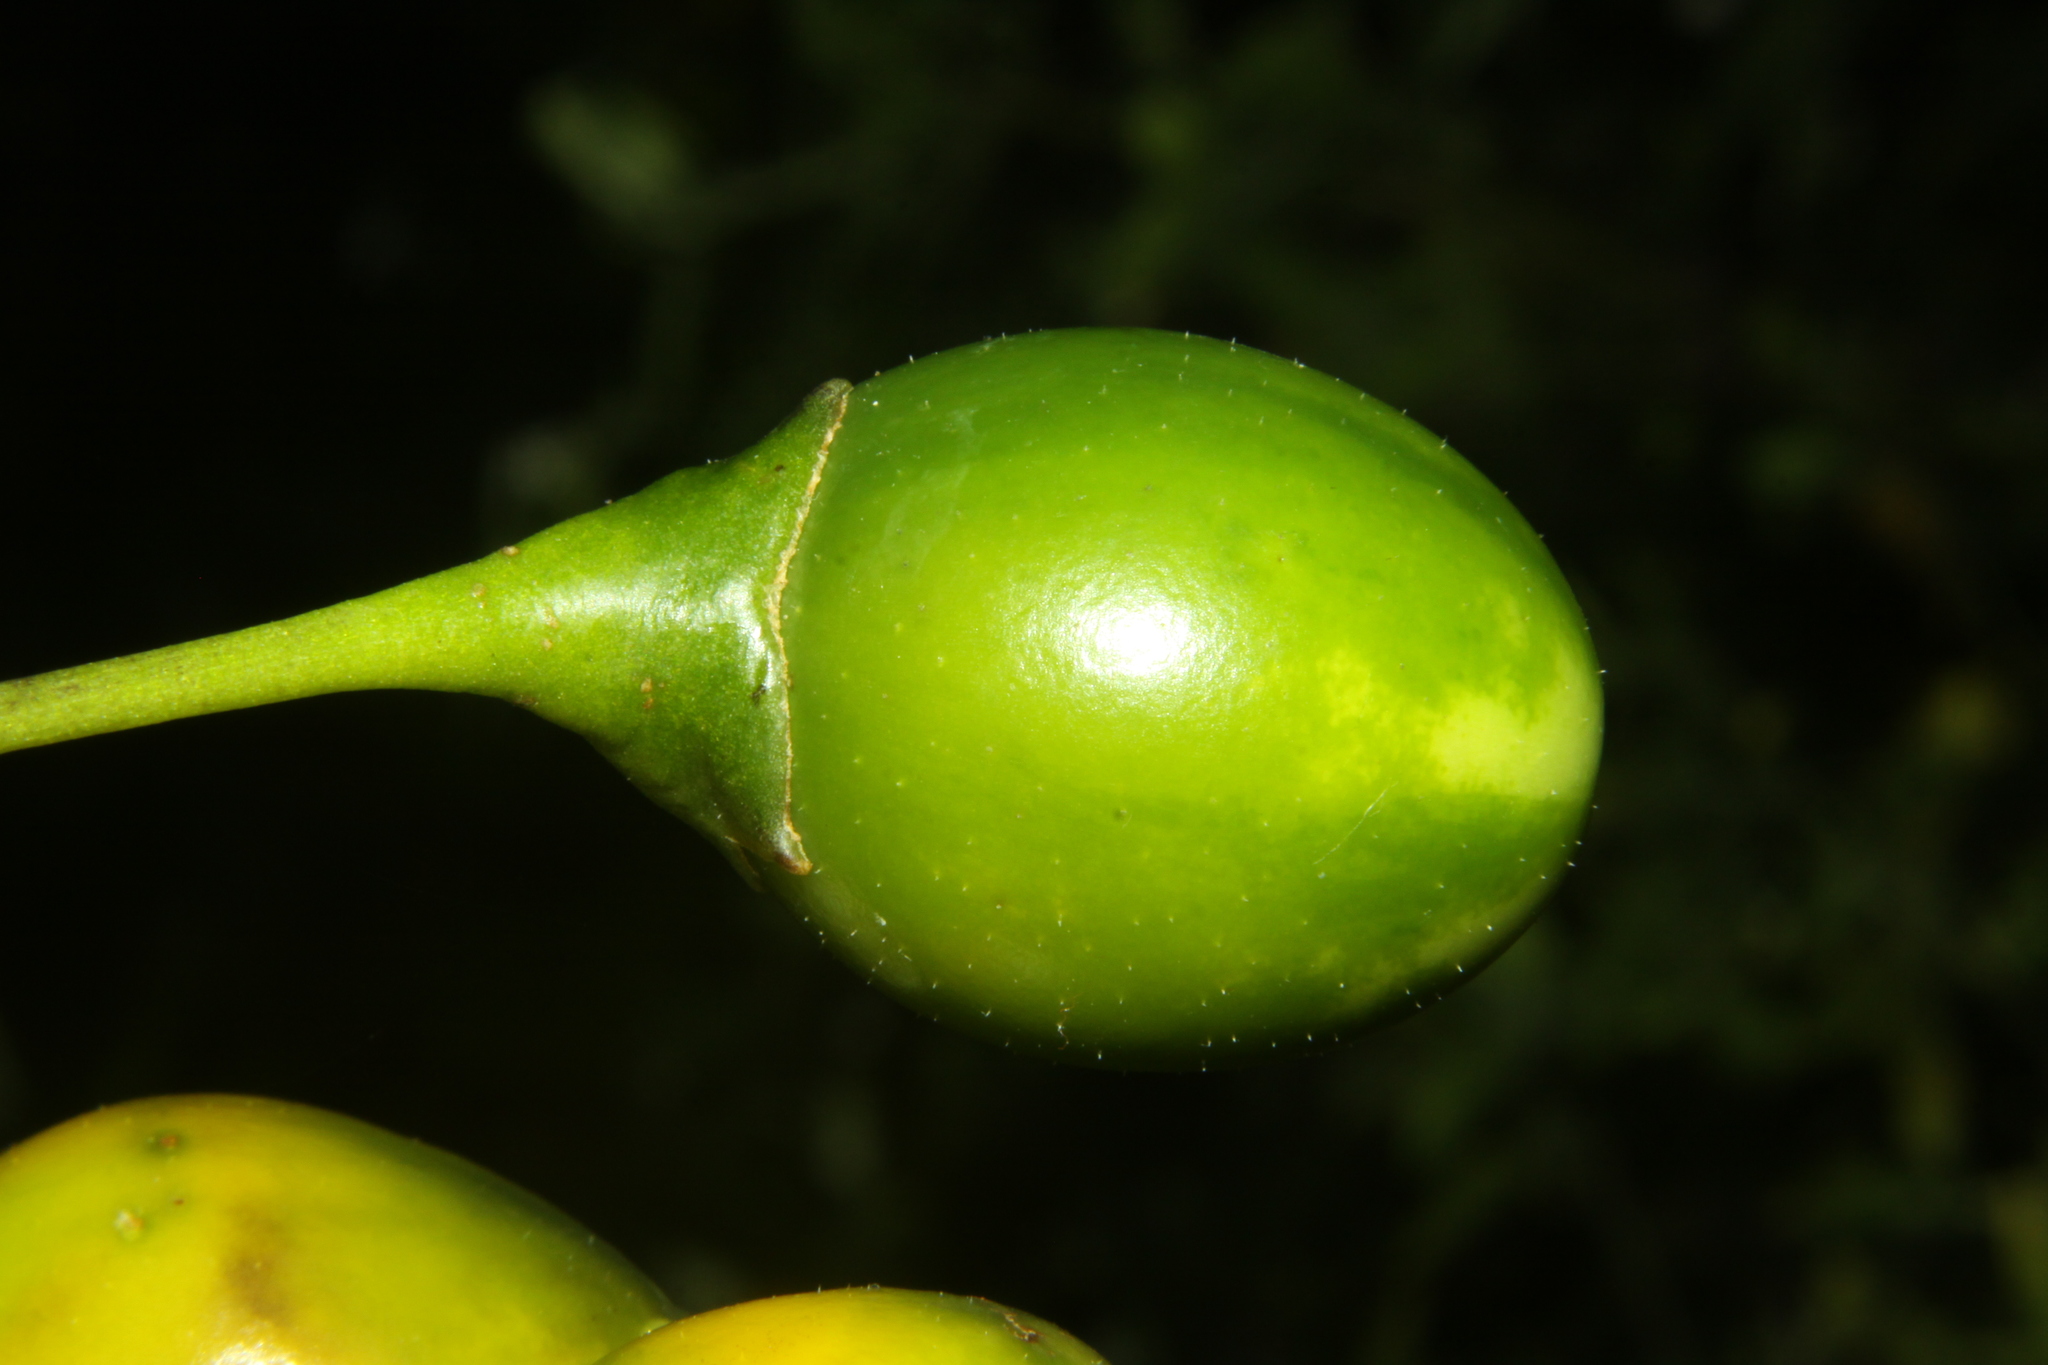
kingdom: Plantae
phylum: Tracheophyta
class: Magnoliopsida
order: Solanales
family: Solanaceae
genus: Solanum
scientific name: Solanum
